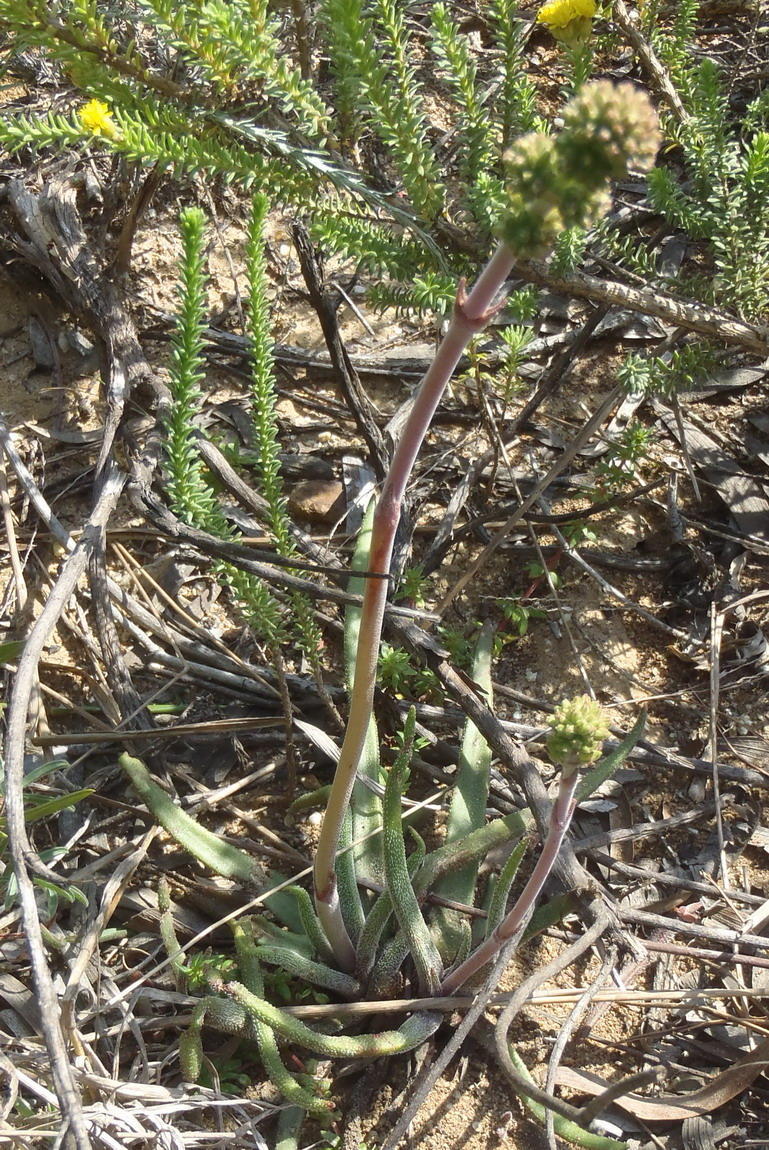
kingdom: Plantae
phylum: Tracheophyta
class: Magnoliopsida
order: Saxifragales
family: Crassulaceae
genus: Crassula
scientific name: Crassula nudicaulis
